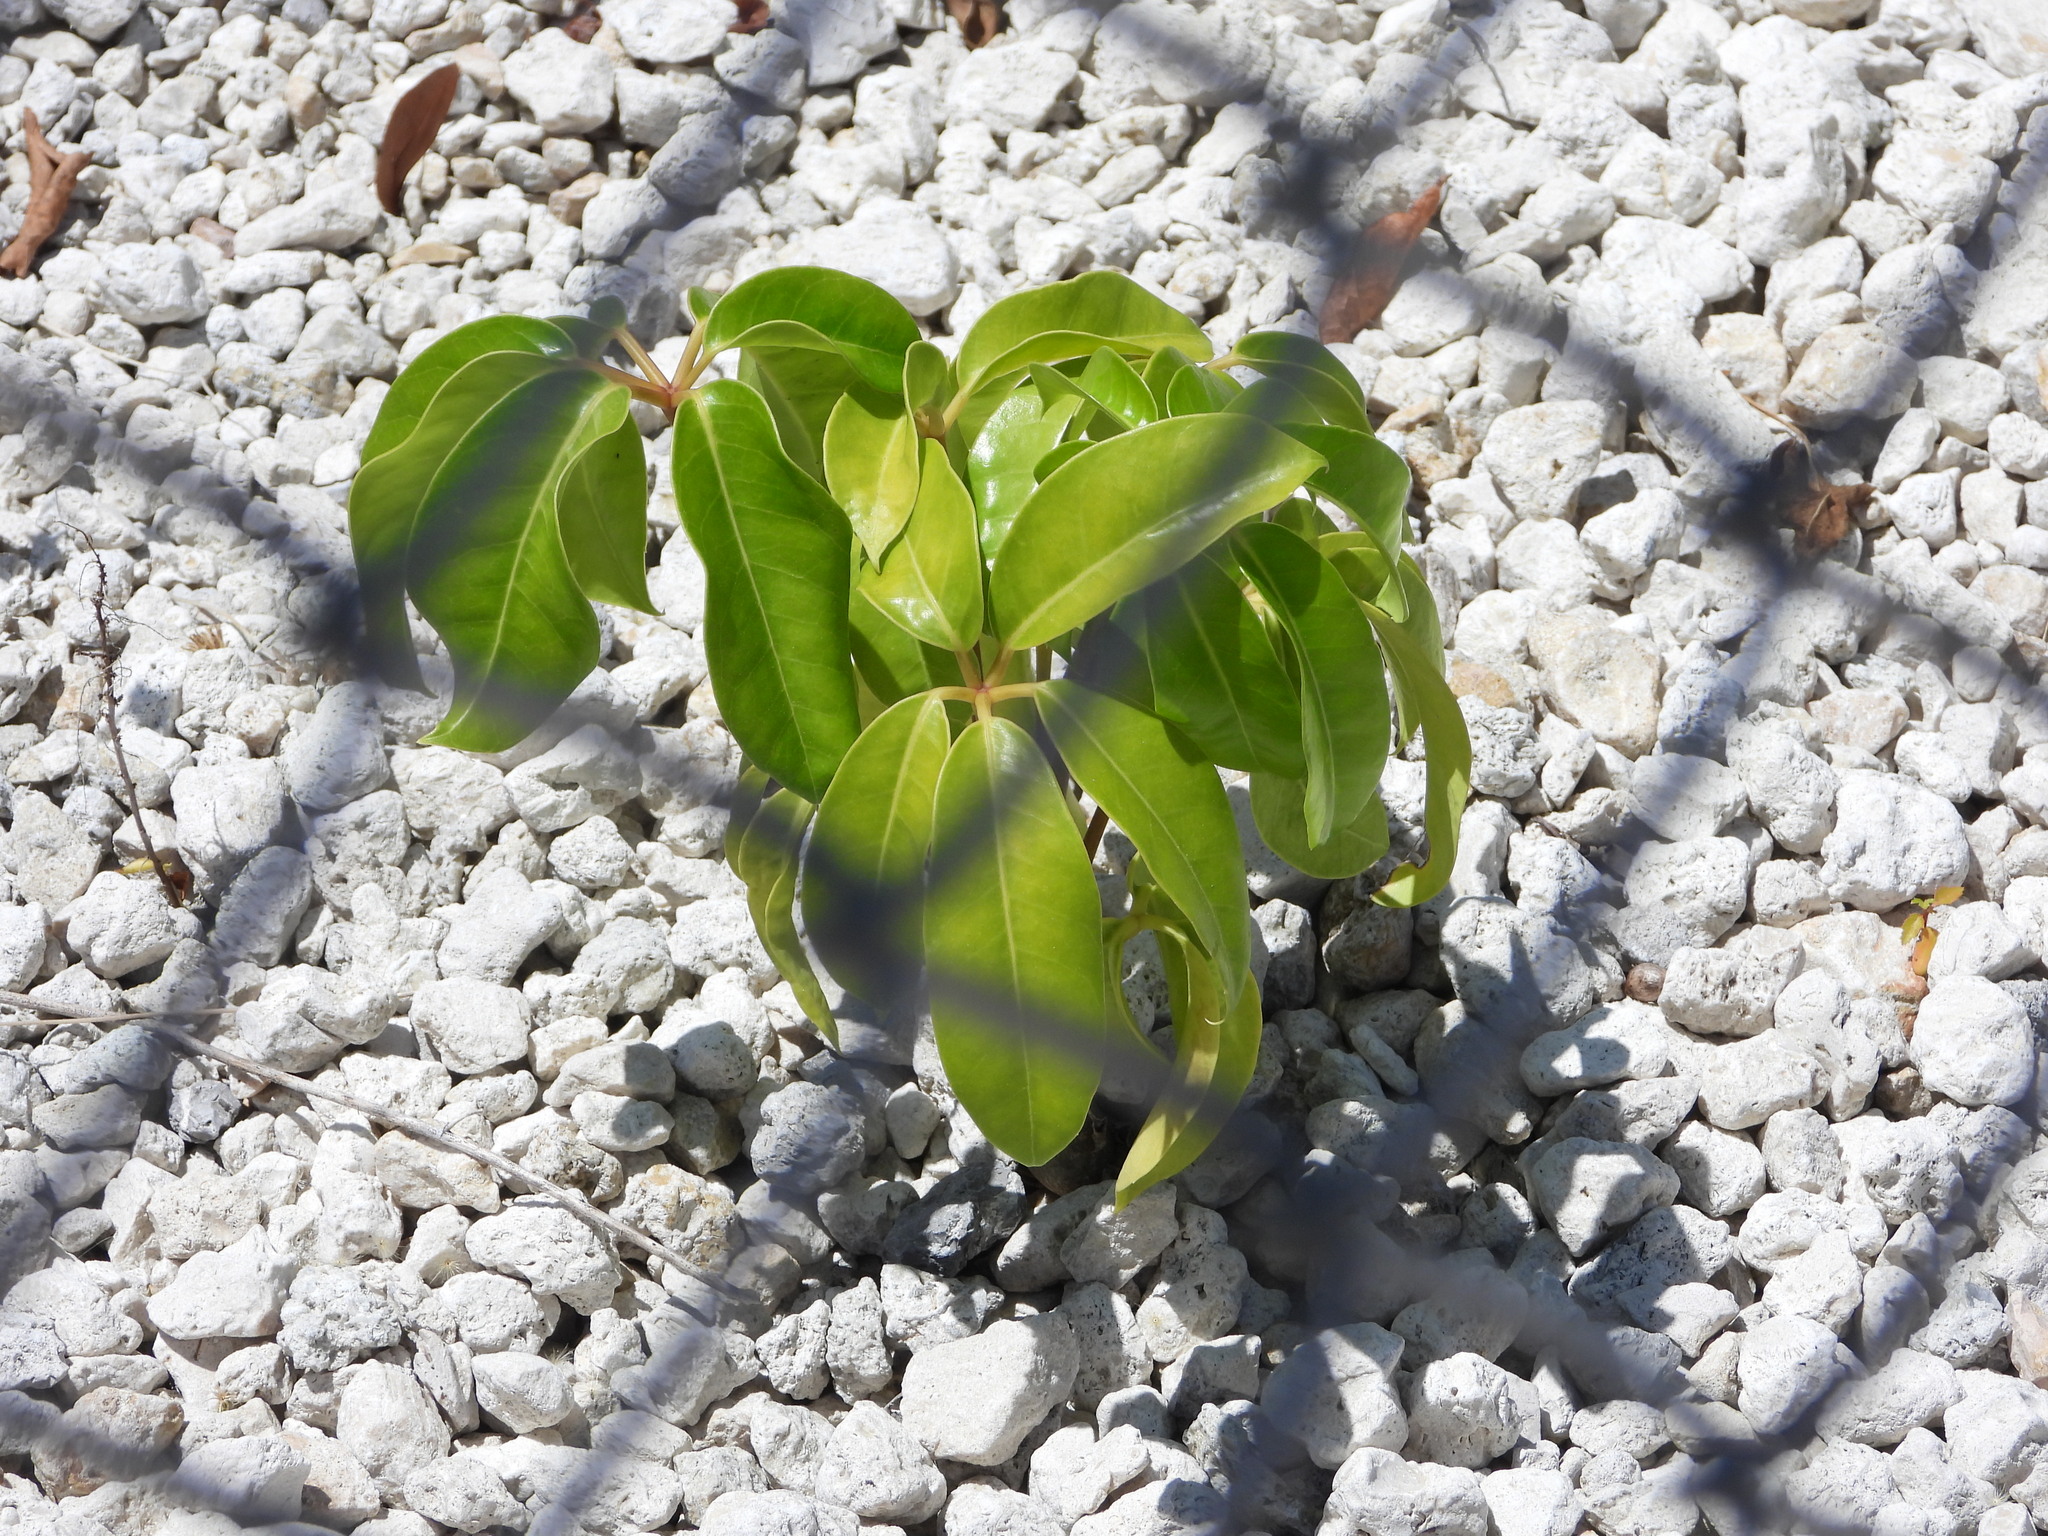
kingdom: Plantae
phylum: Tracheophyta
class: Magnoliopsida
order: Apiales
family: Araliaceae
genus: Heptapleurum
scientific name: Heptapleurum actinophyllum
